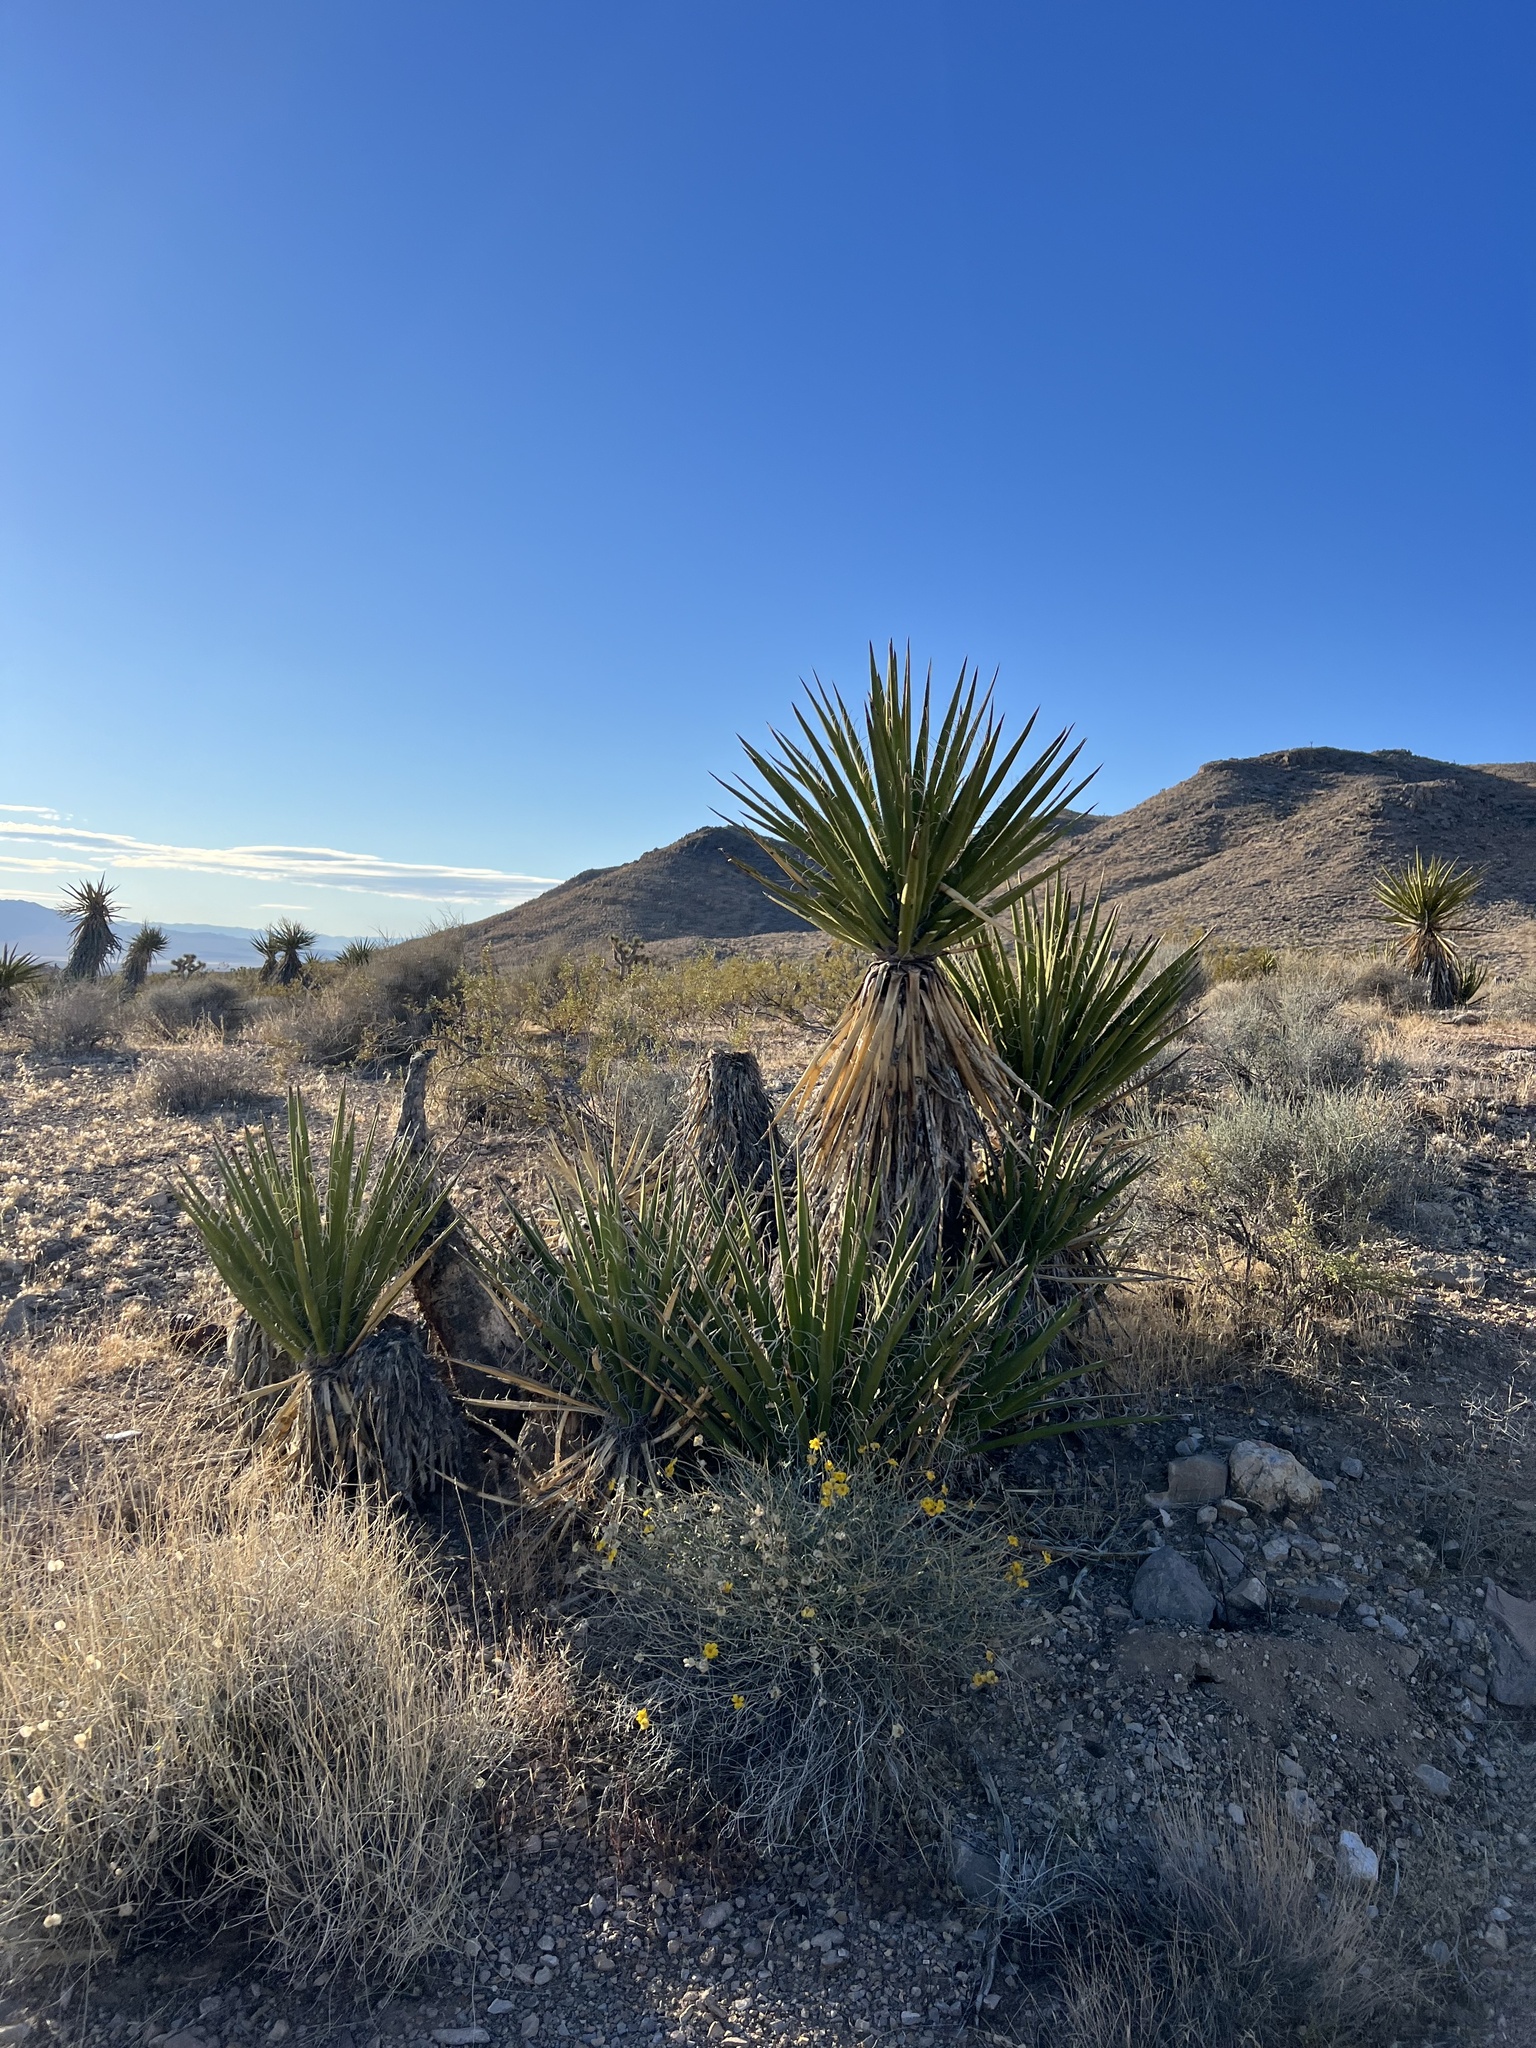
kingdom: Plantae
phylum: Tracheophyta
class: Liliopsida
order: Asparagales
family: Asparagaceae
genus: Yucca
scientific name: Yucca schidigera
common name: Mojave yucca
